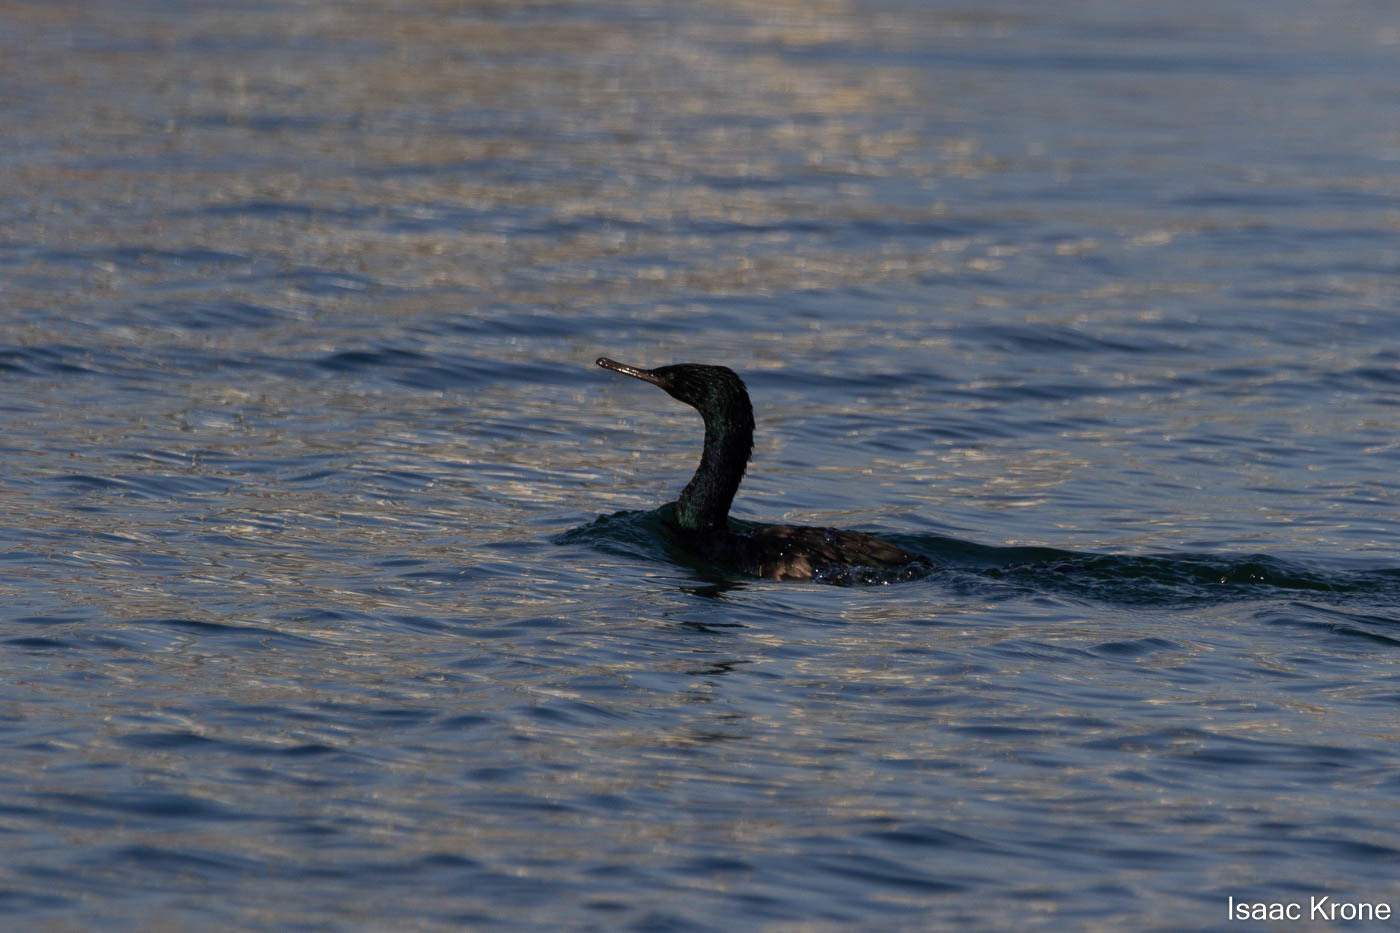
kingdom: Animalia
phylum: Chordata
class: Aves
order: Suliformes
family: Phalacrocoracidae
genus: Phalacrocorax
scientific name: Phalacrocorax pelagicus
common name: Pelagic cormorant
